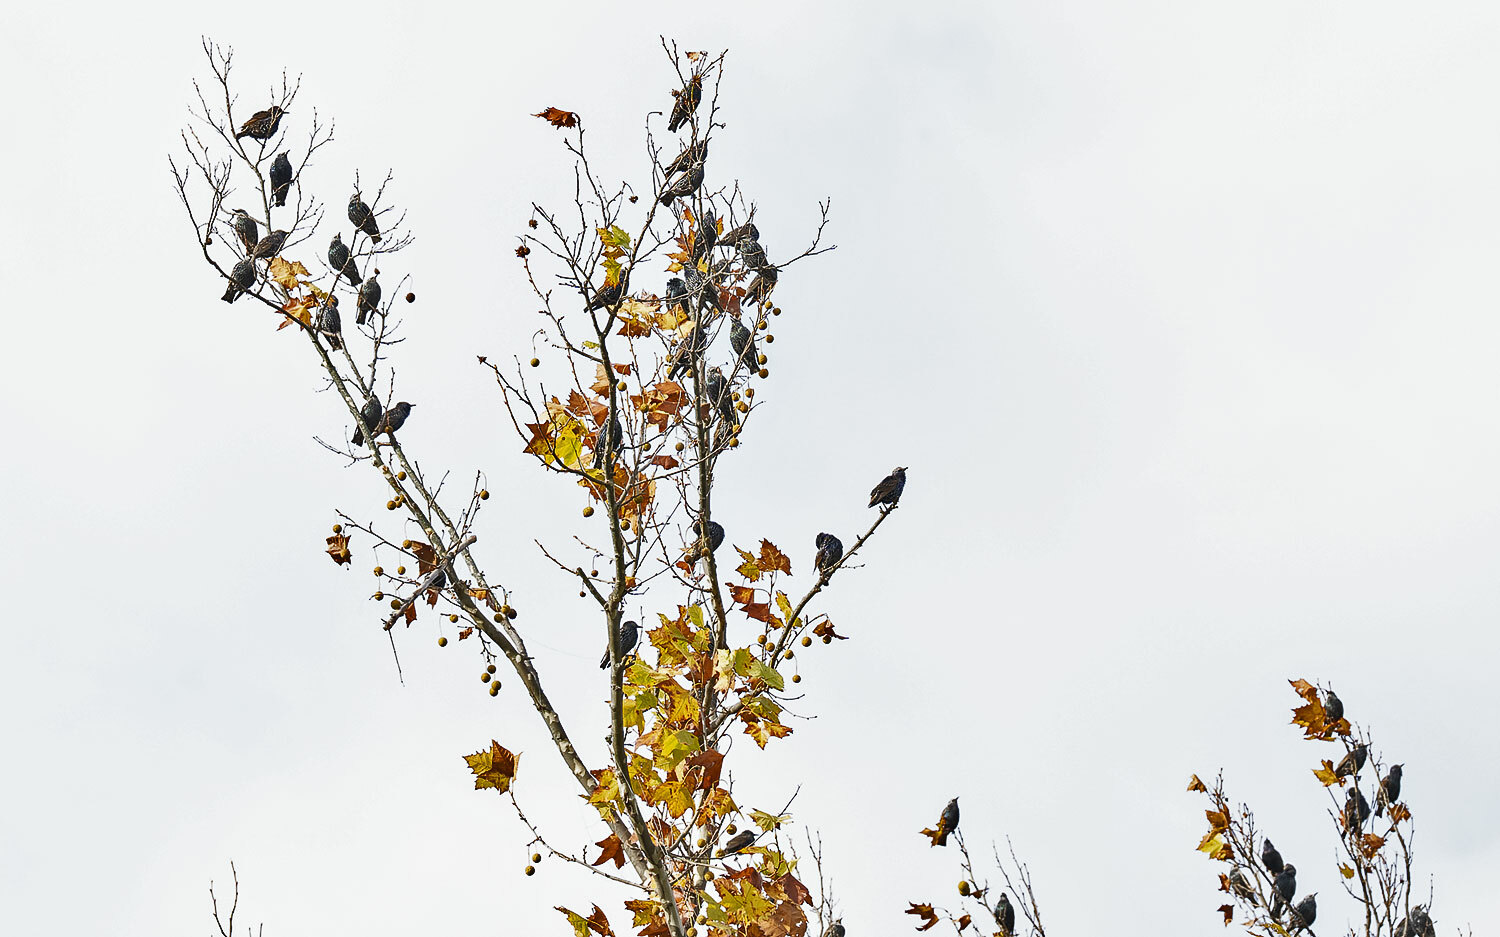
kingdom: Animalia
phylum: Chordata
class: Aves
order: Passeriformes
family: Sturnidae
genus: Sturnus
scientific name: Sturnus vulgaris
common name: Common starling
